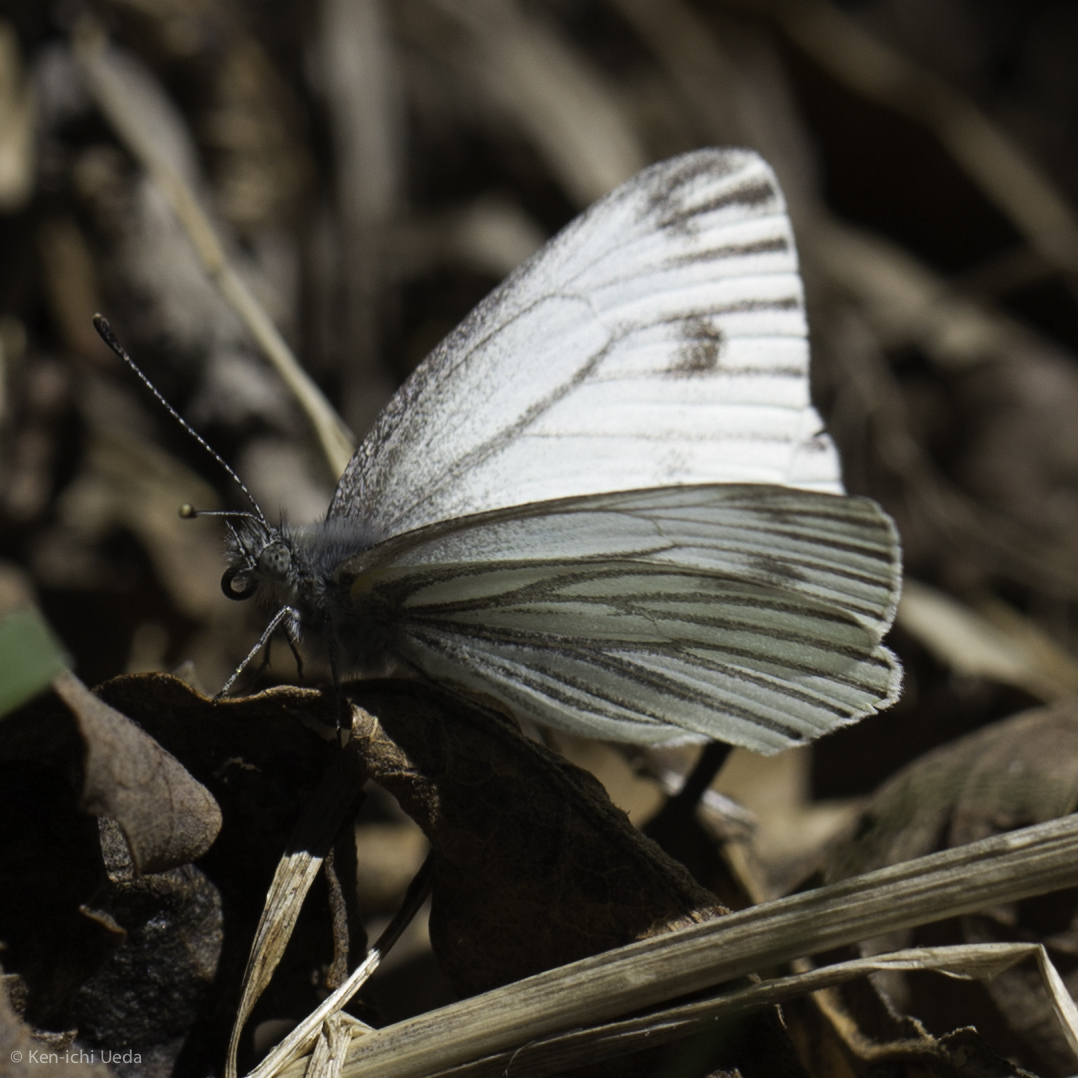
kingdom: Animalia
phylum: Arthropoda
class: Insecta
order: Lepidoptera
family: Pieridae
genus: Pieris
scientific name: Pieris marginalis
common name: Margined white
